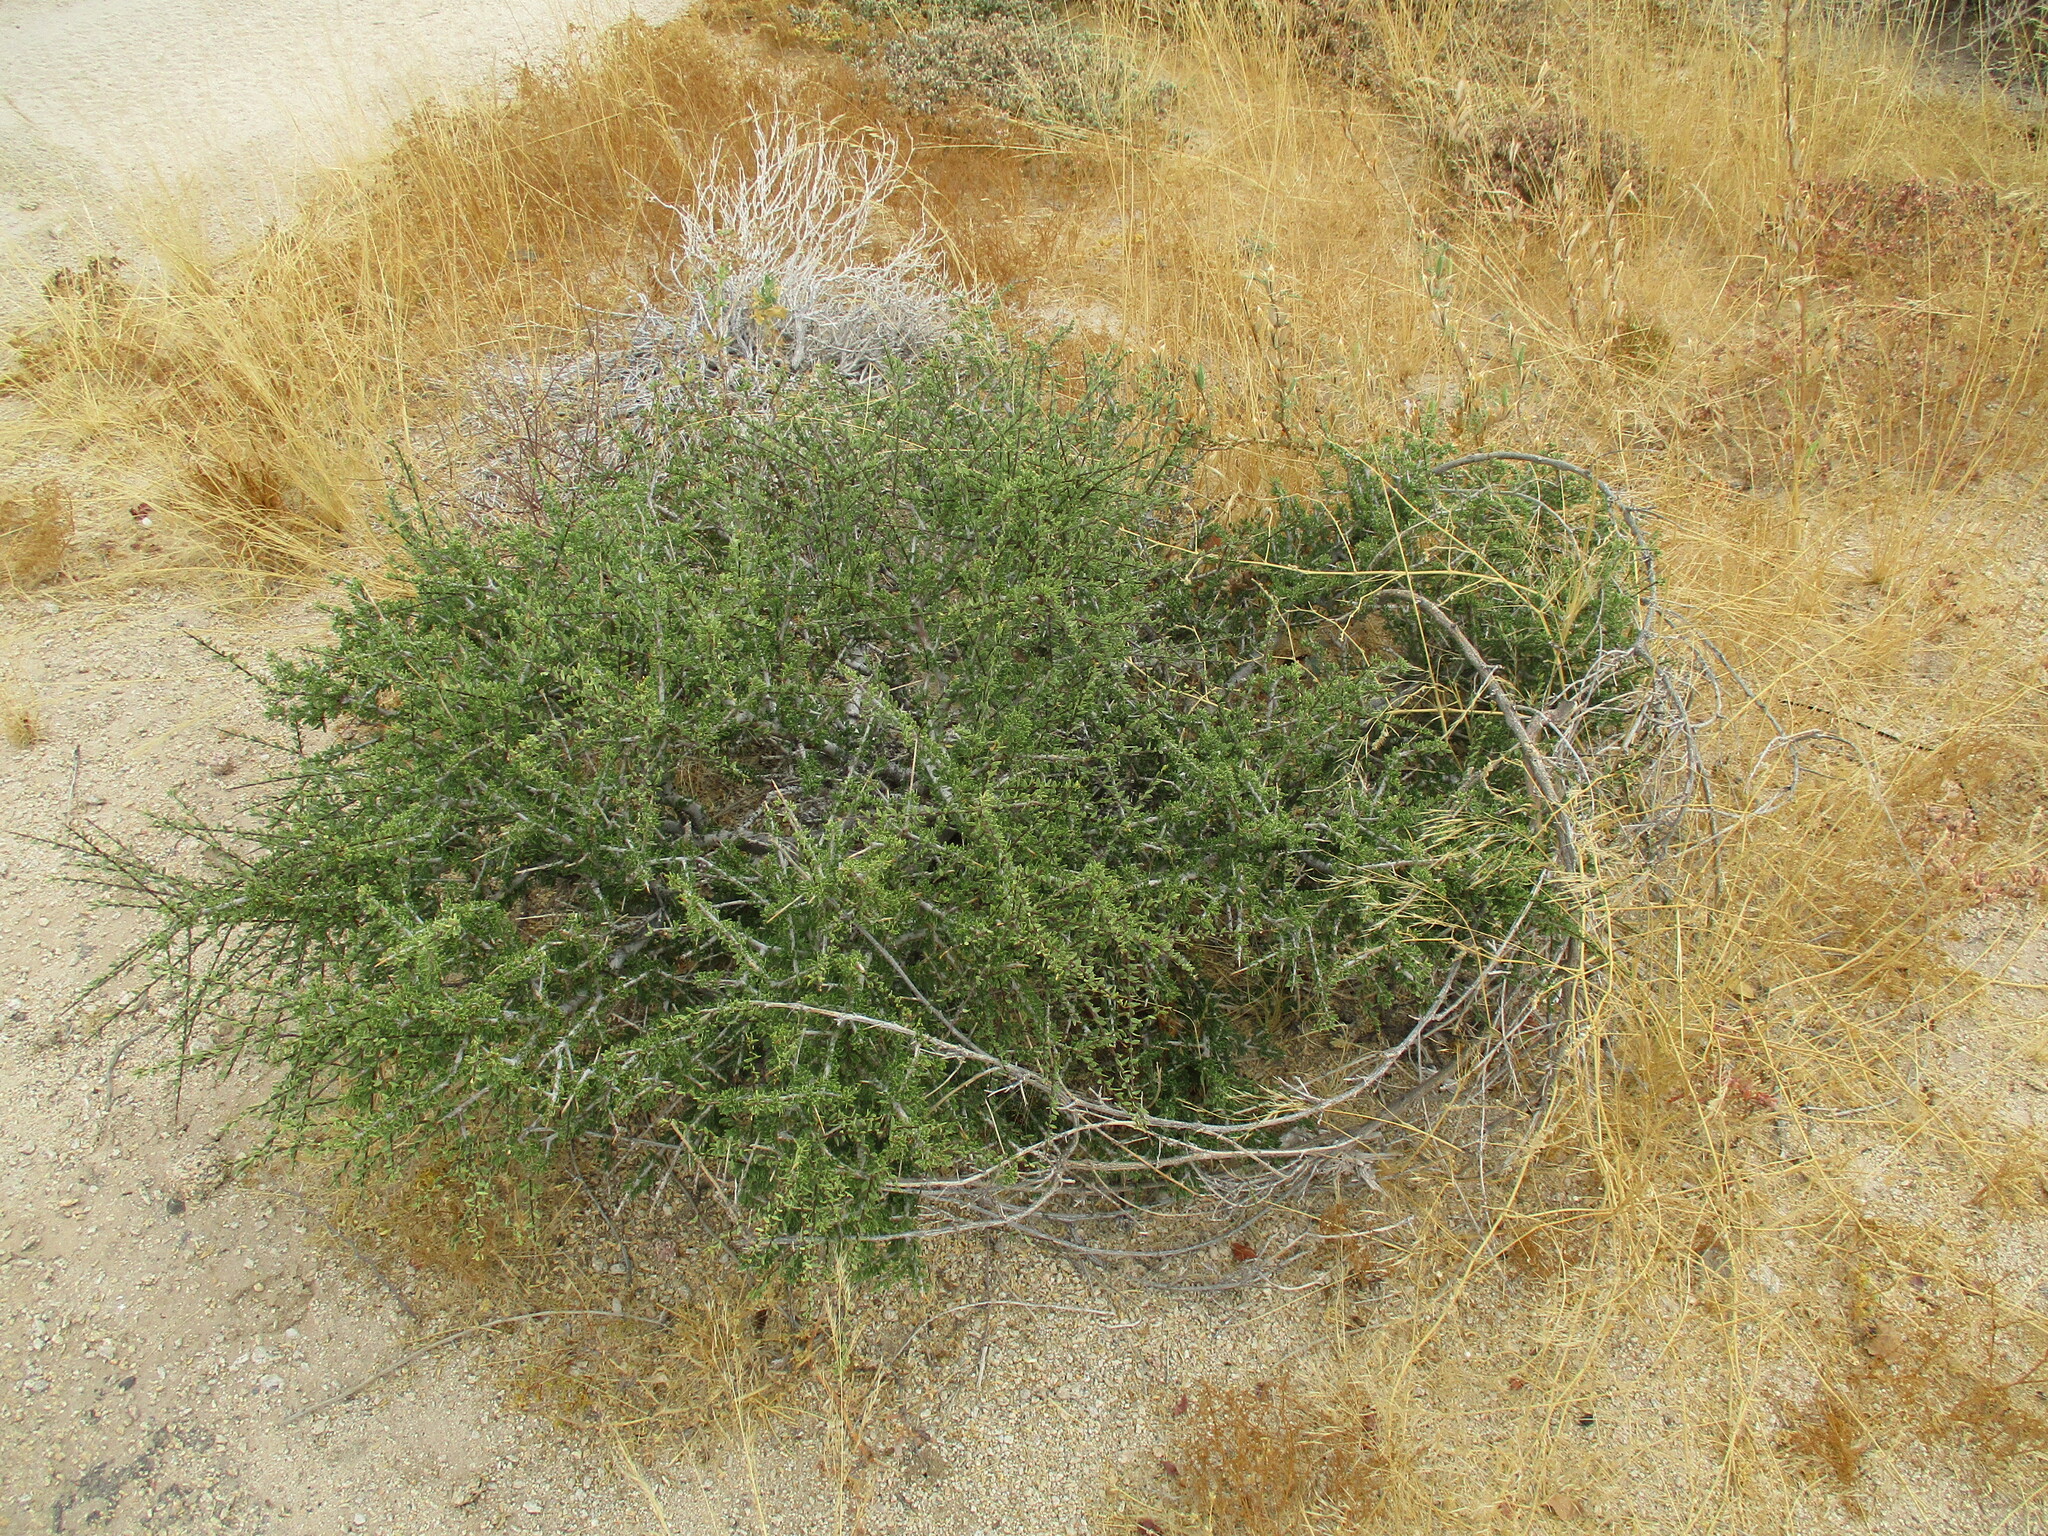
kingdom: Plantae
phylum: Tracheophyta
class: Magnoliopsida
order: Brassicales
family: Capparaceae
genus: Boscia
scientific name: Boscia foetida
